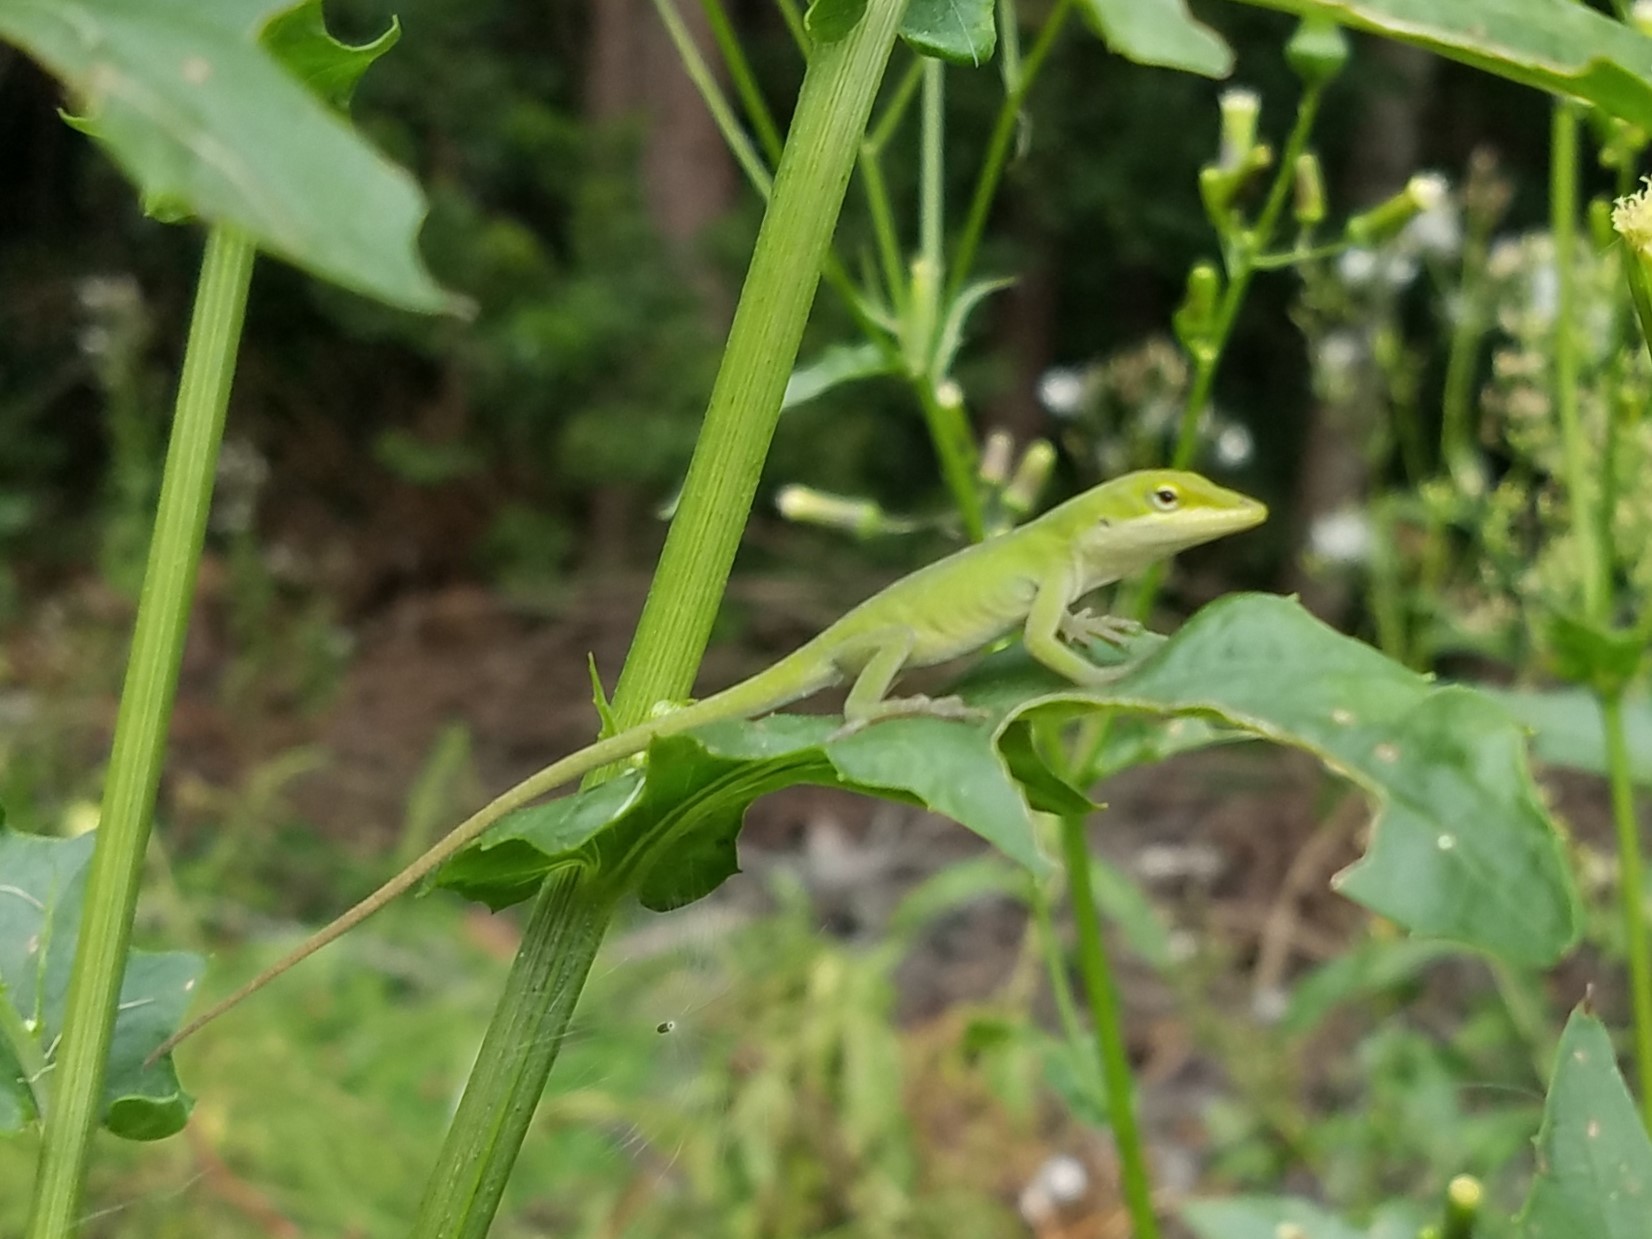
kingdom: Animalia
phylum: Chordata
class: Squamata
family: Dactyloidae
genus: Anolis
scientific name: Anolis carolinensis
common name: Green anole
